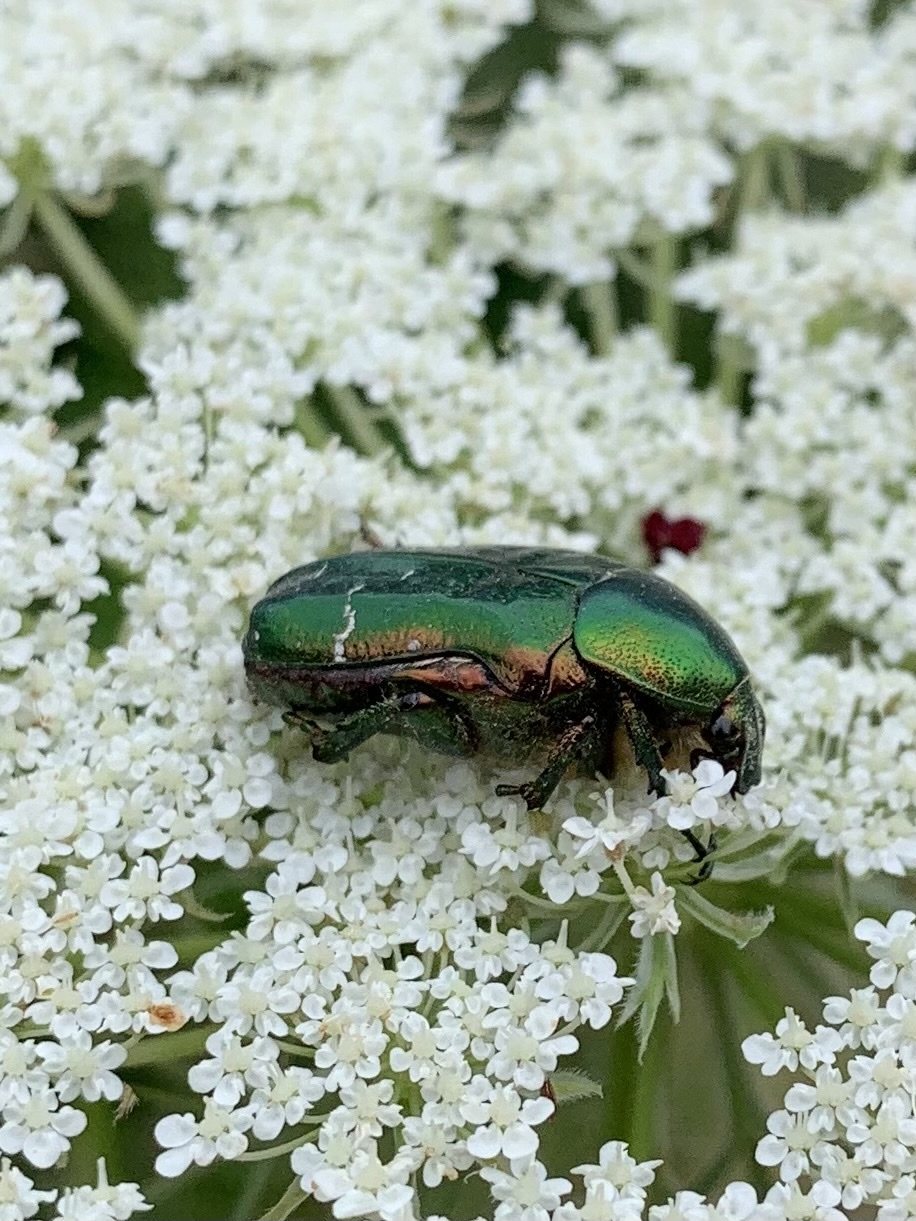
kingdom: Animalia
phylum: Arthropoda
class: Insecta
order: Coleoptera
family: Scarabaeidae
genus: Cetonia
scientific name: Cetonia aurata
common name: Rose chafer
